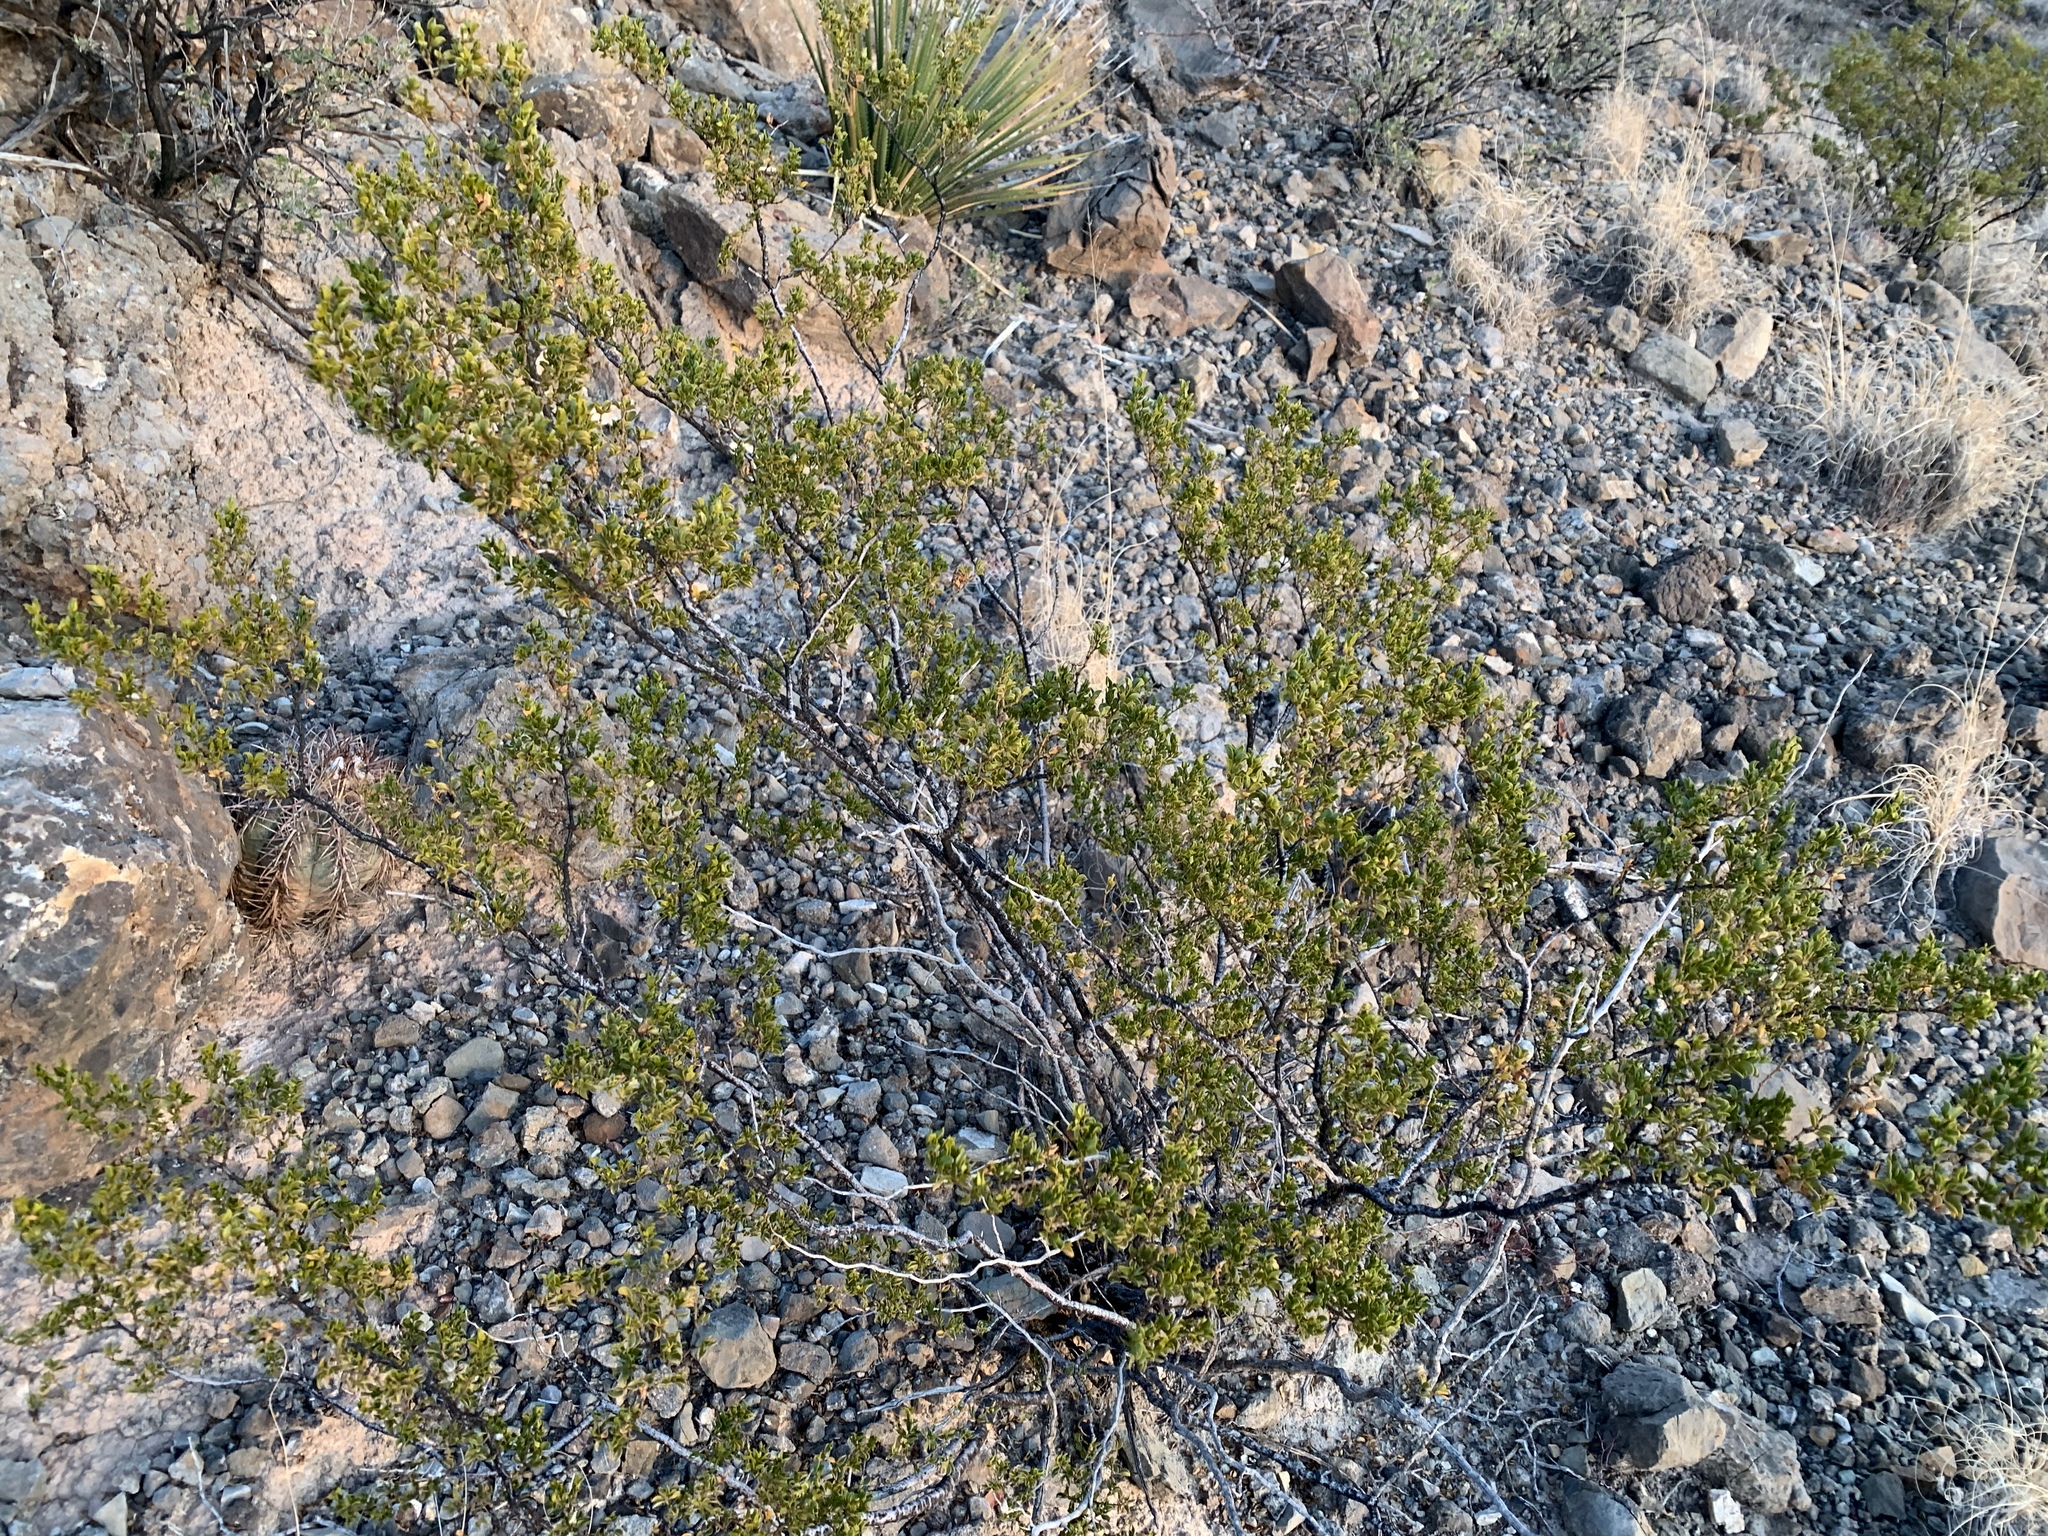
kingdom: Plantae
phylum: Tracheophyta
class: Magnoliopsida
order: Zygophyllales
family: Zygophyllaceae
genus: Larrea
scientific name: Larrea tridentata
